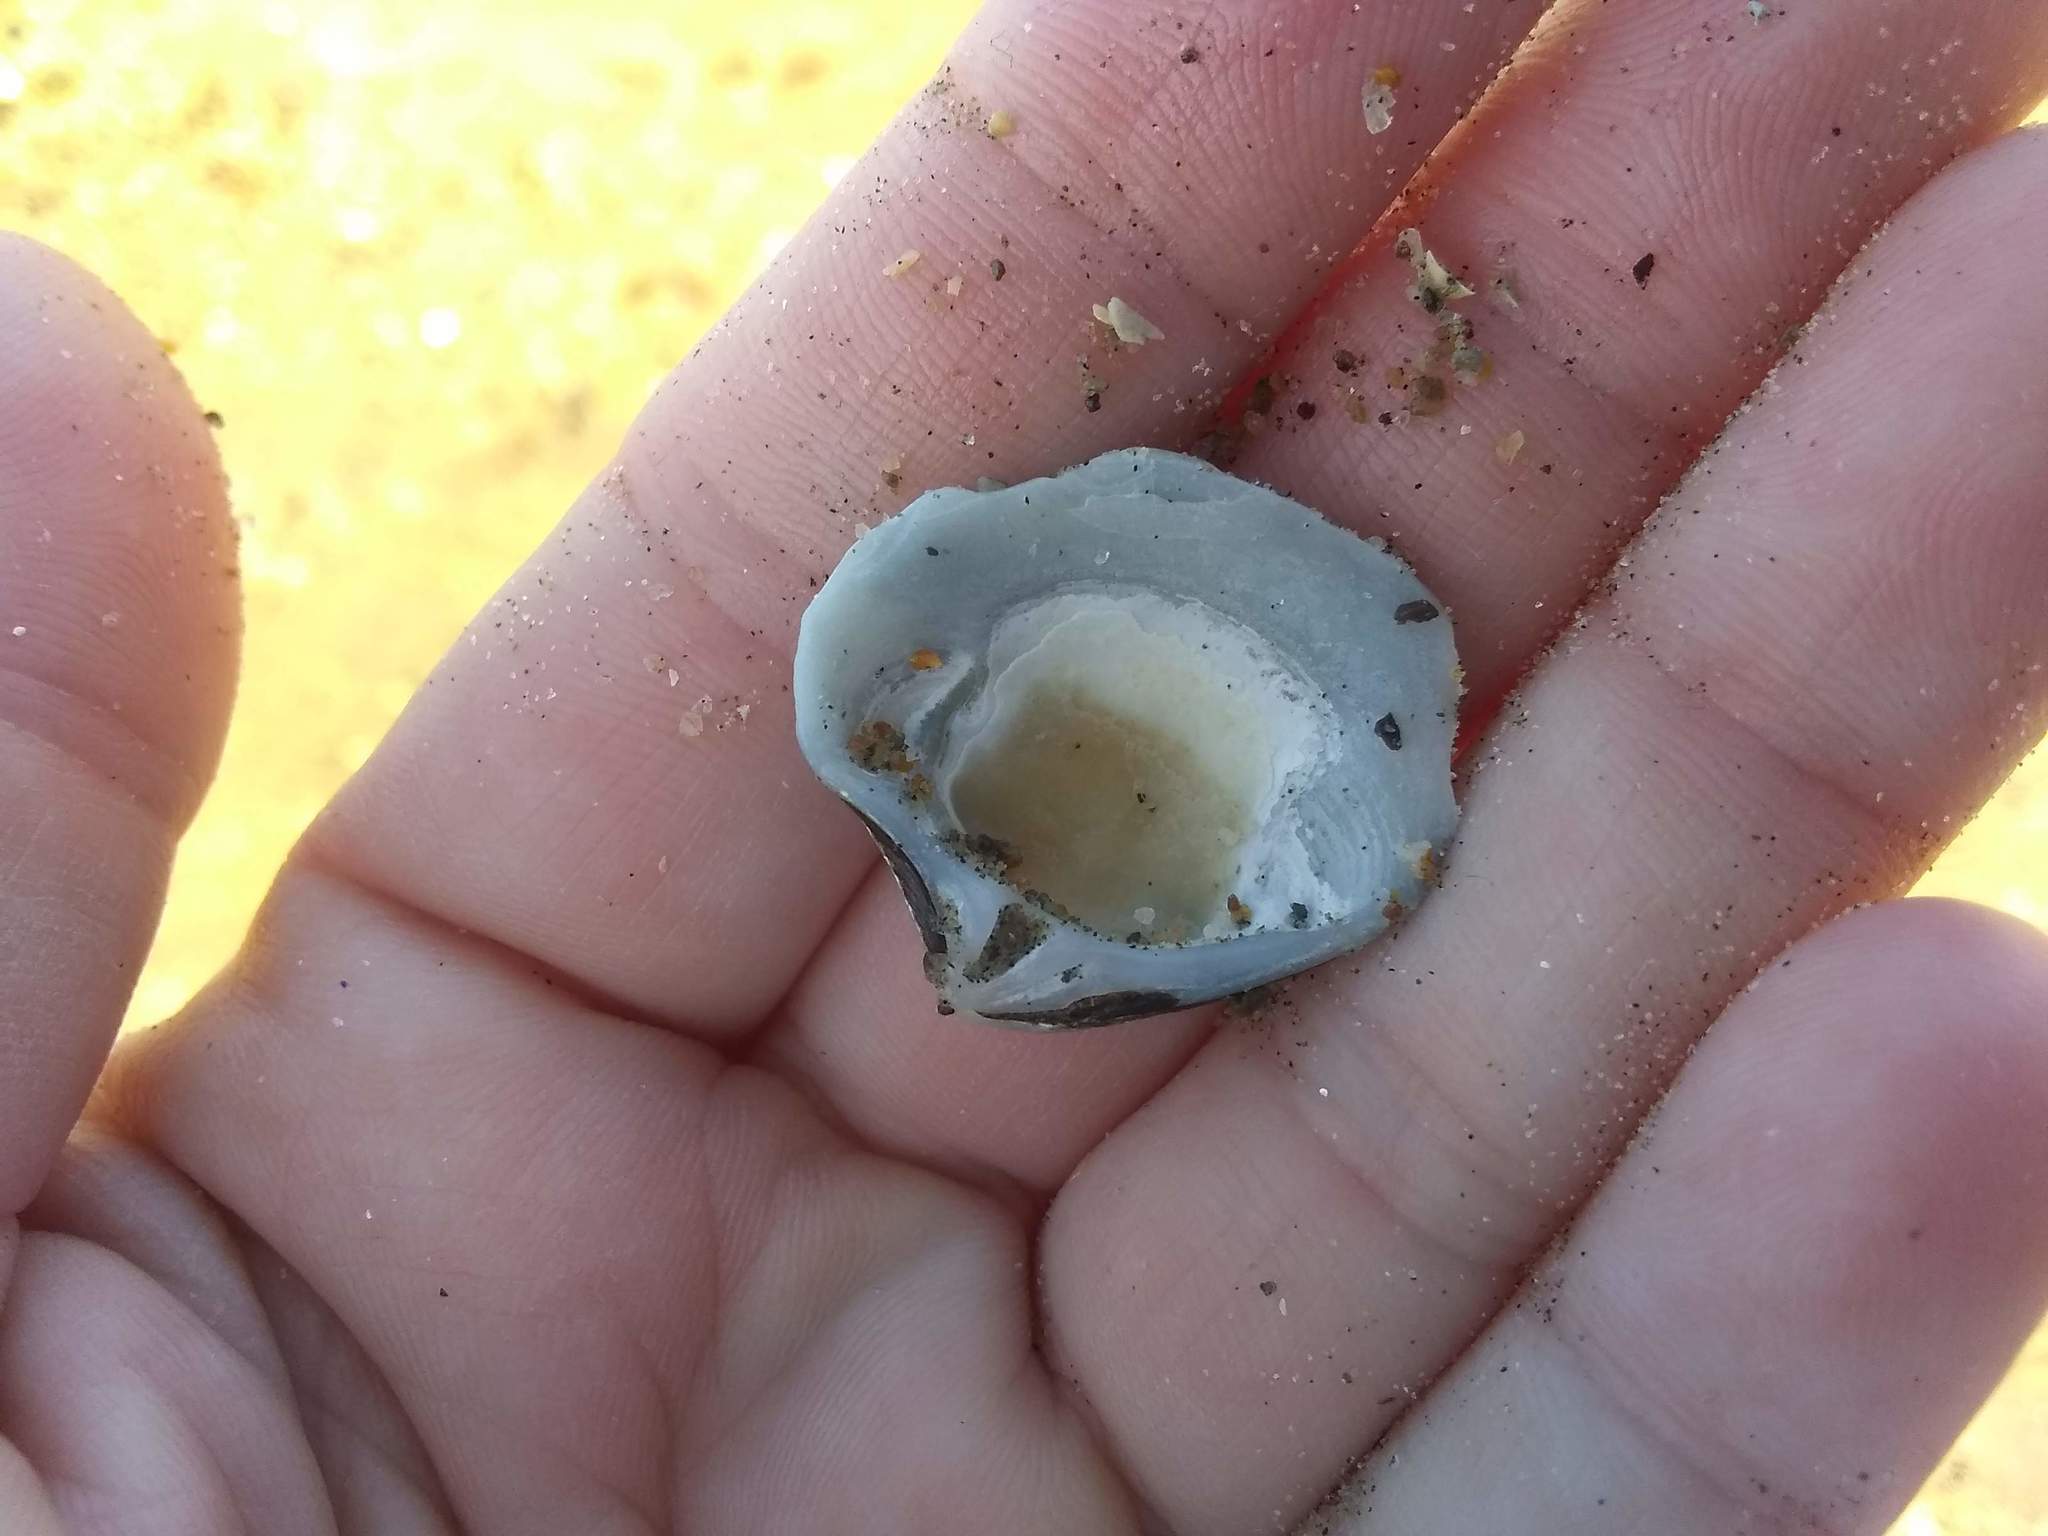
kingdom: Animalia
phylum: Mollusca
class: Bivalvia
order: Carditida
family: Astartidae
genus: Astarte
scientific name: Astarte undata
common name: Wavy astarte
